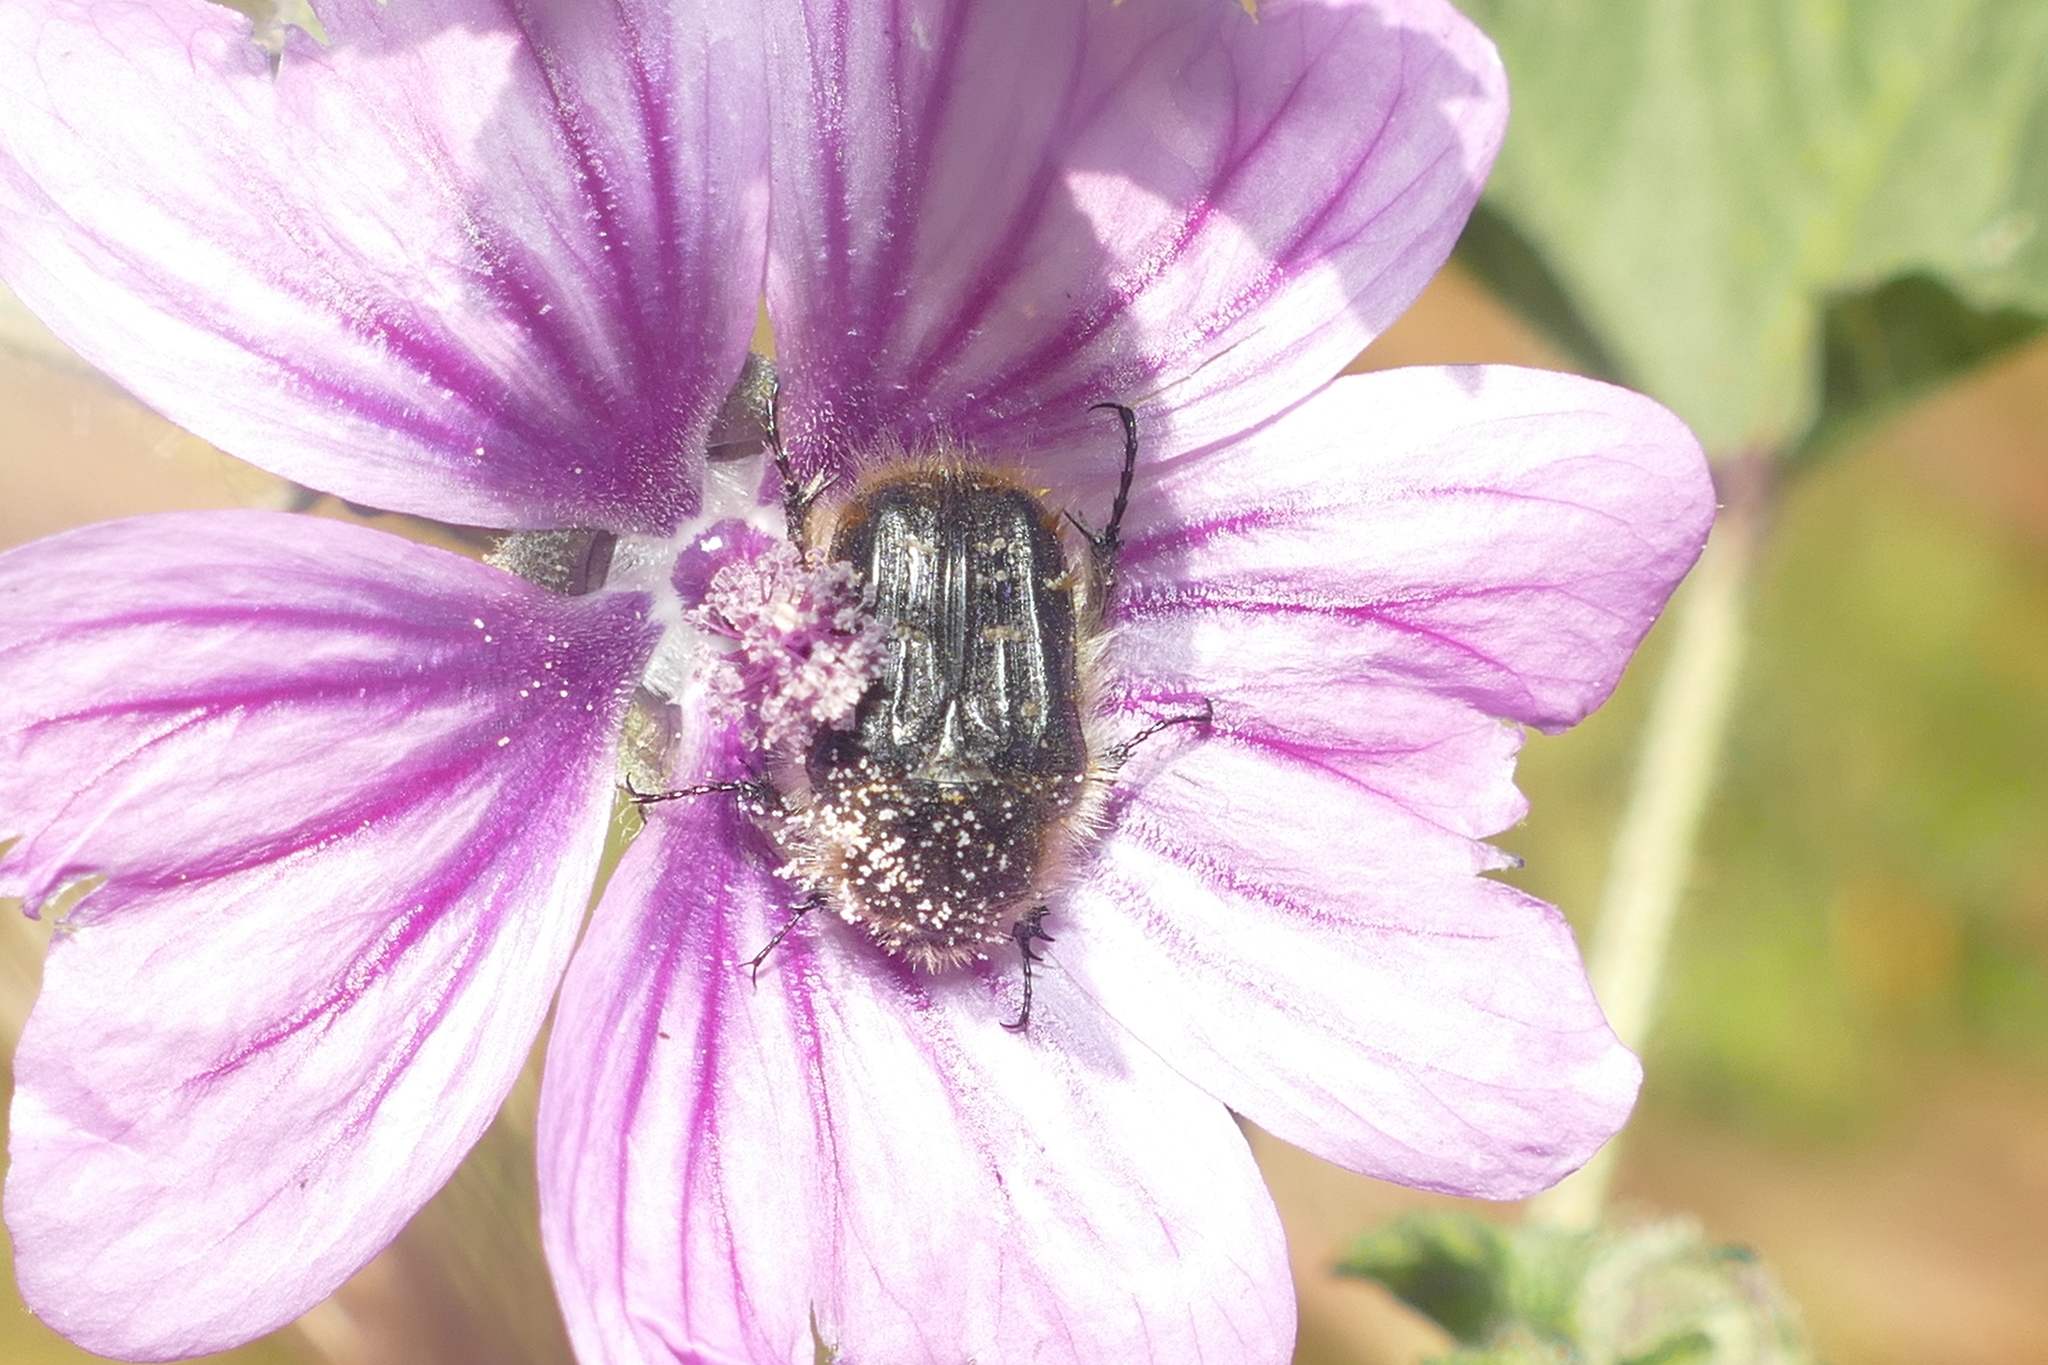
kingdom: Animalia
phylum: Arthropoda
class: Insecta
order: Coleoptera
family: Scarabaeidae
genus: Tropinota
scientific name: Tropinota squalida
